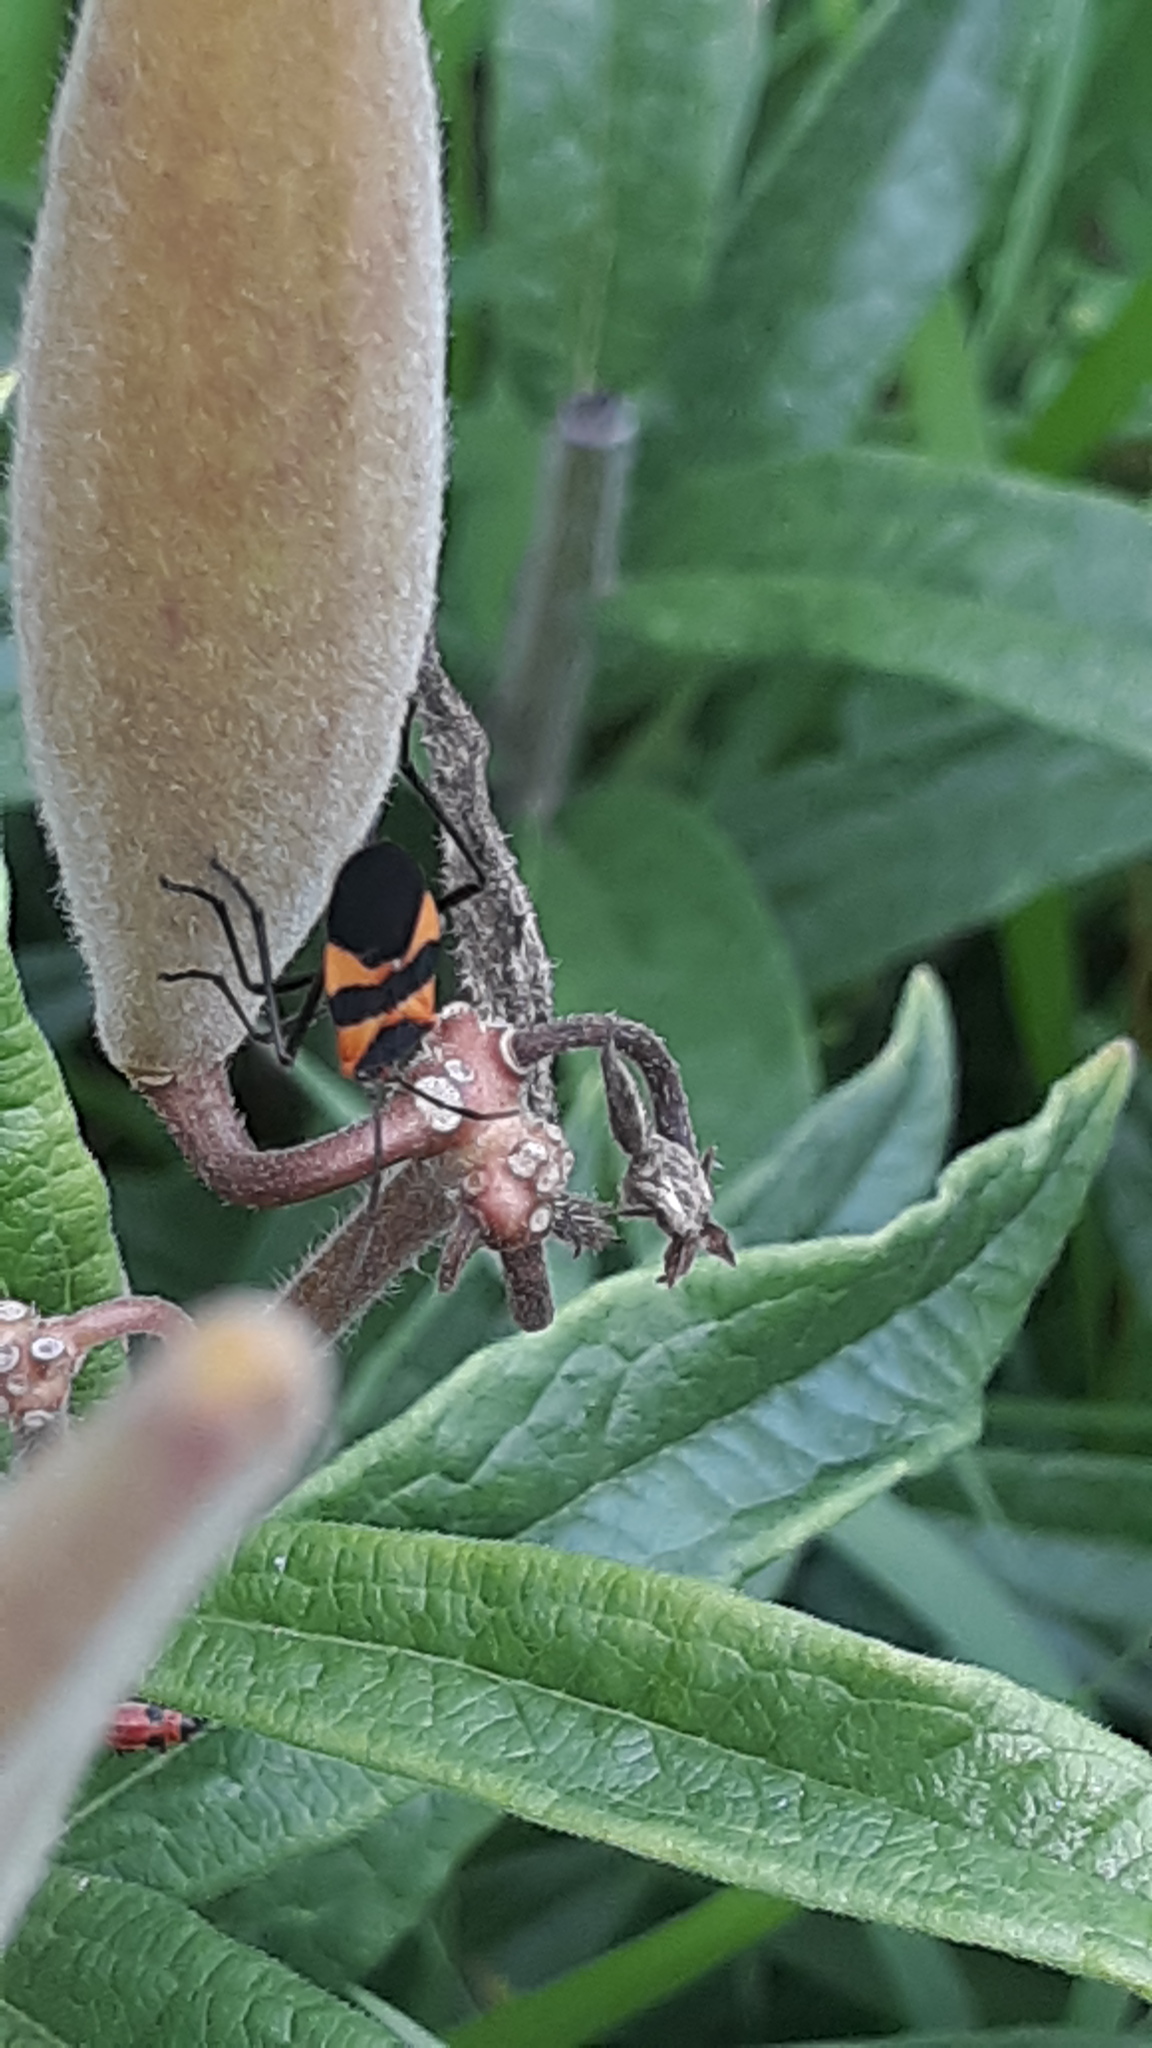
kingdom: Animalia
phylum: Arthropoda
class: Insecta
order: Hemiptera
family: Lygaeidae
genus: Oncopeltus
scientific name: Oncopeltus fasciatus
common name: Large milkweed bug
